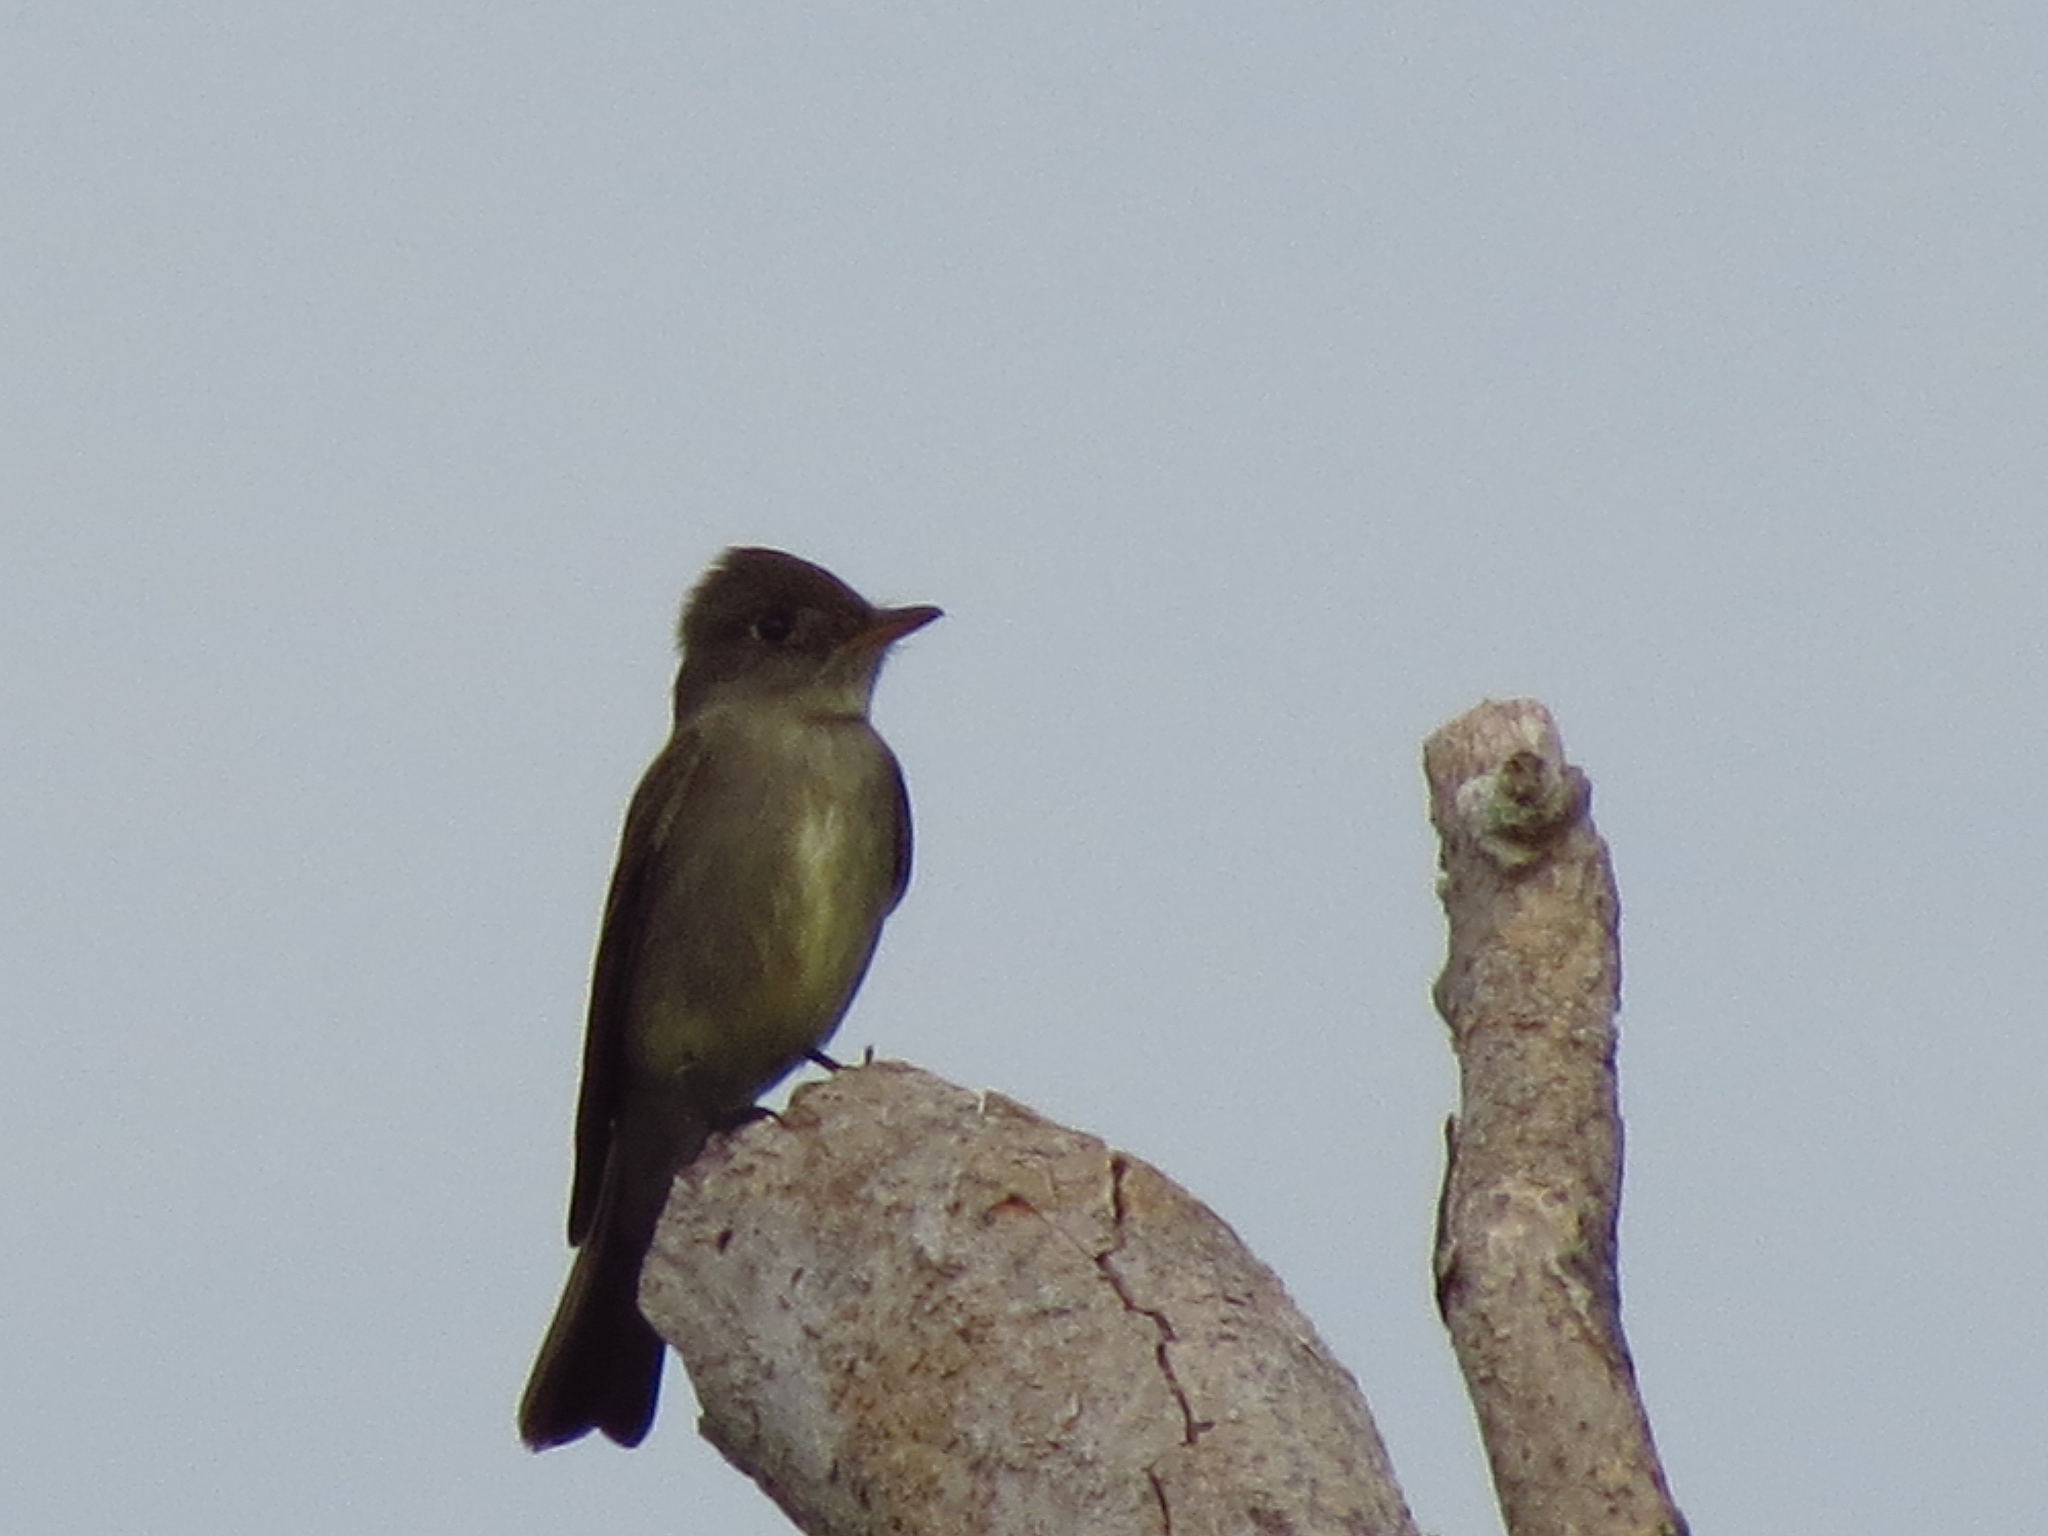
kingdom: Animalia
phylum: Chordata
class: Aves
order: Passeriformes
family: Tyrannidae
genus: Contopus
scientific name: Contopus virens
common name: Eastern wood-pewee
